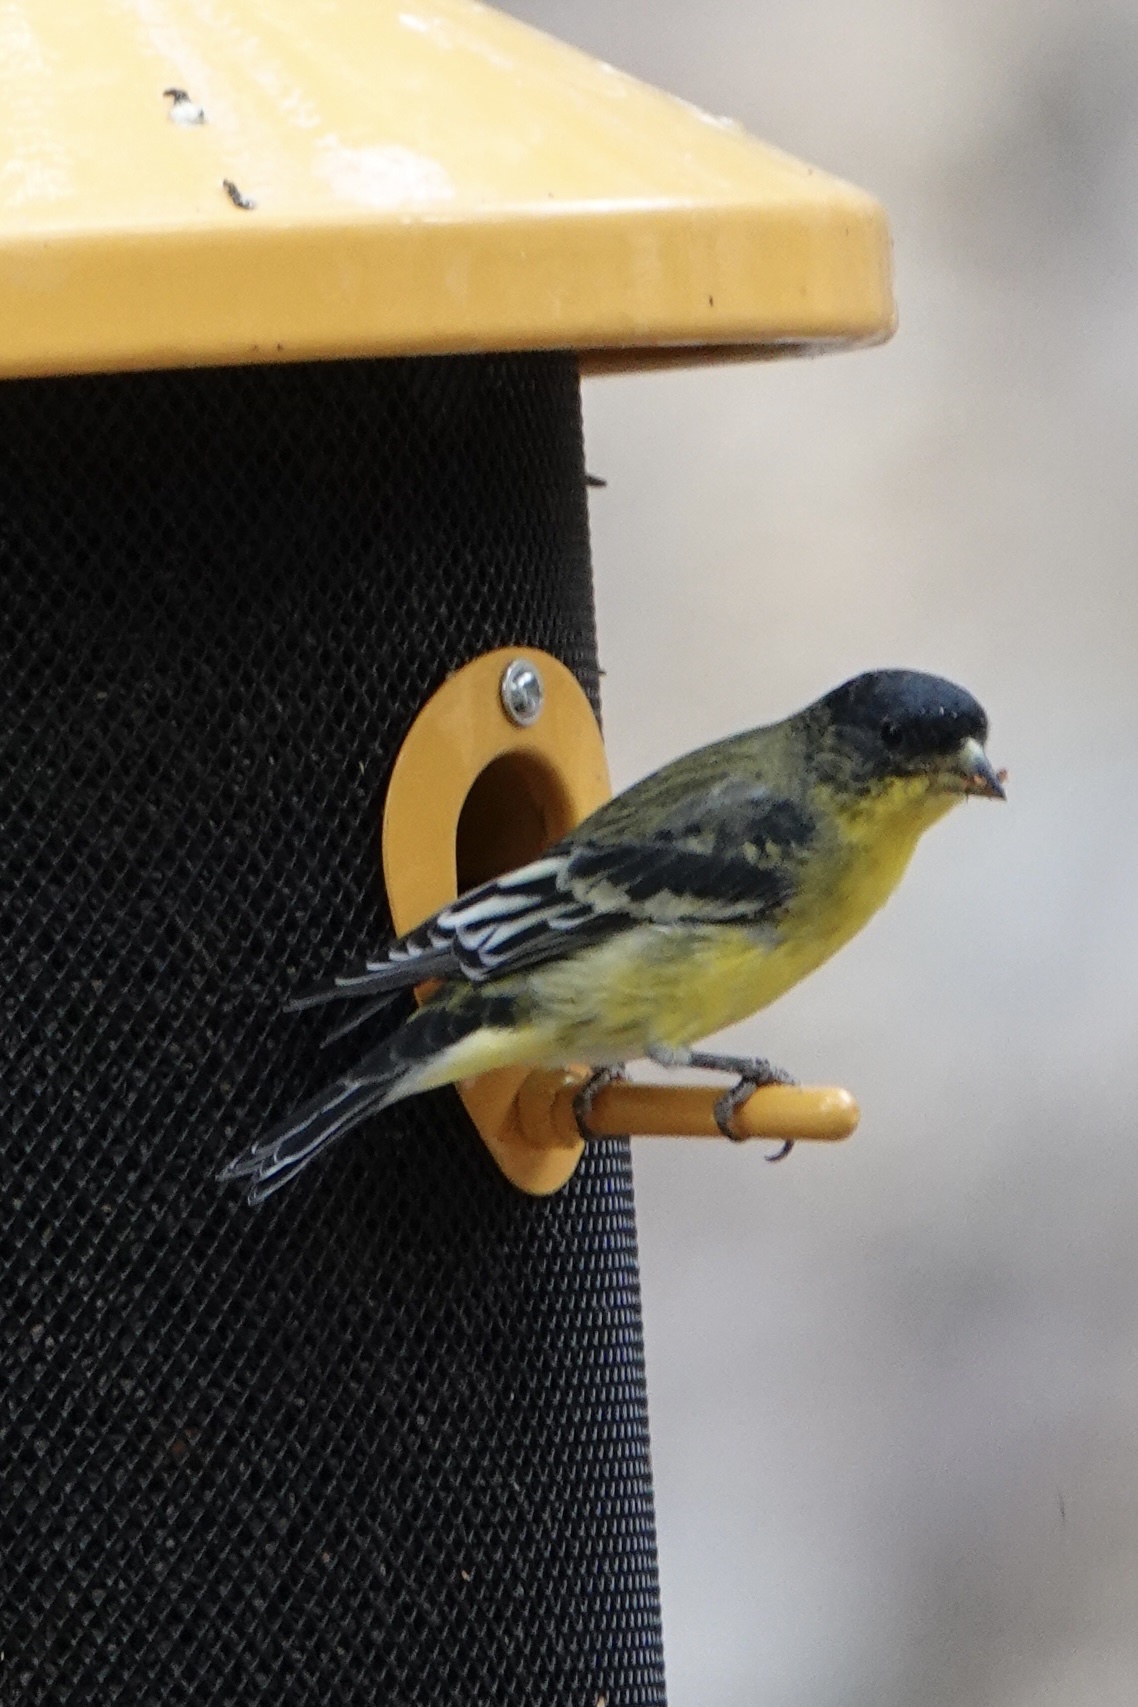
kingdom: Animalia
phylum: Chordata
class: Aves
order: Passeriformes
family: Fringillidae
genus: Spinus
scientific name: Spinus psaltria
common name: Lesser goldfinch
